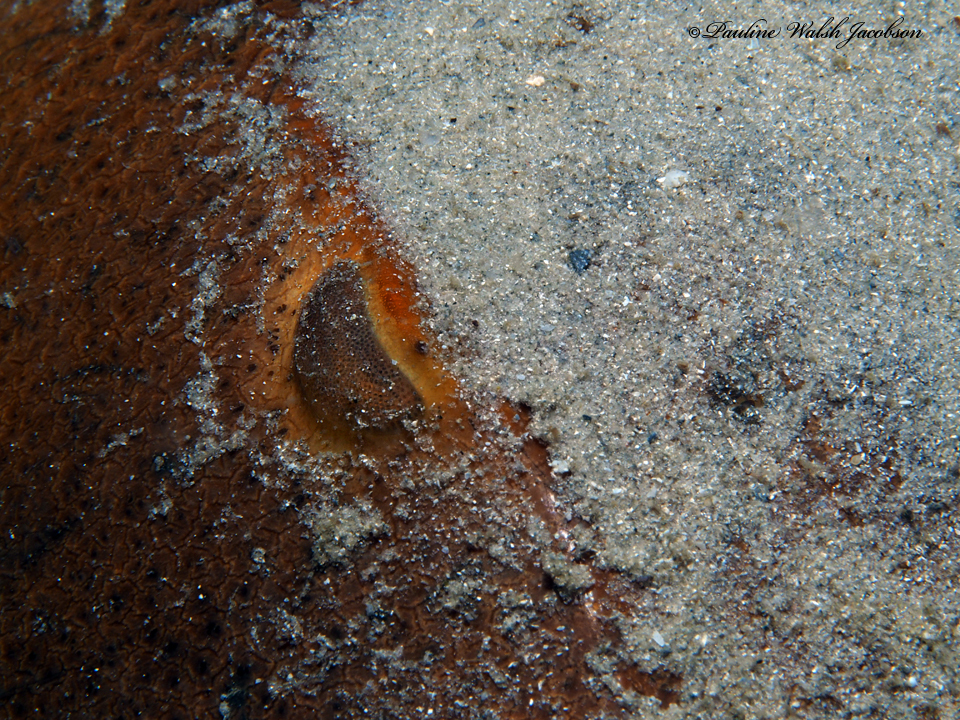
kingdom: Animalia
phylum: Arthropoda
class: Merostomata
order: Xiphosurida
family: Limulidae
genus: Limulus
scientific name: Limulus polyphemus
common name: Horseshoe crab
